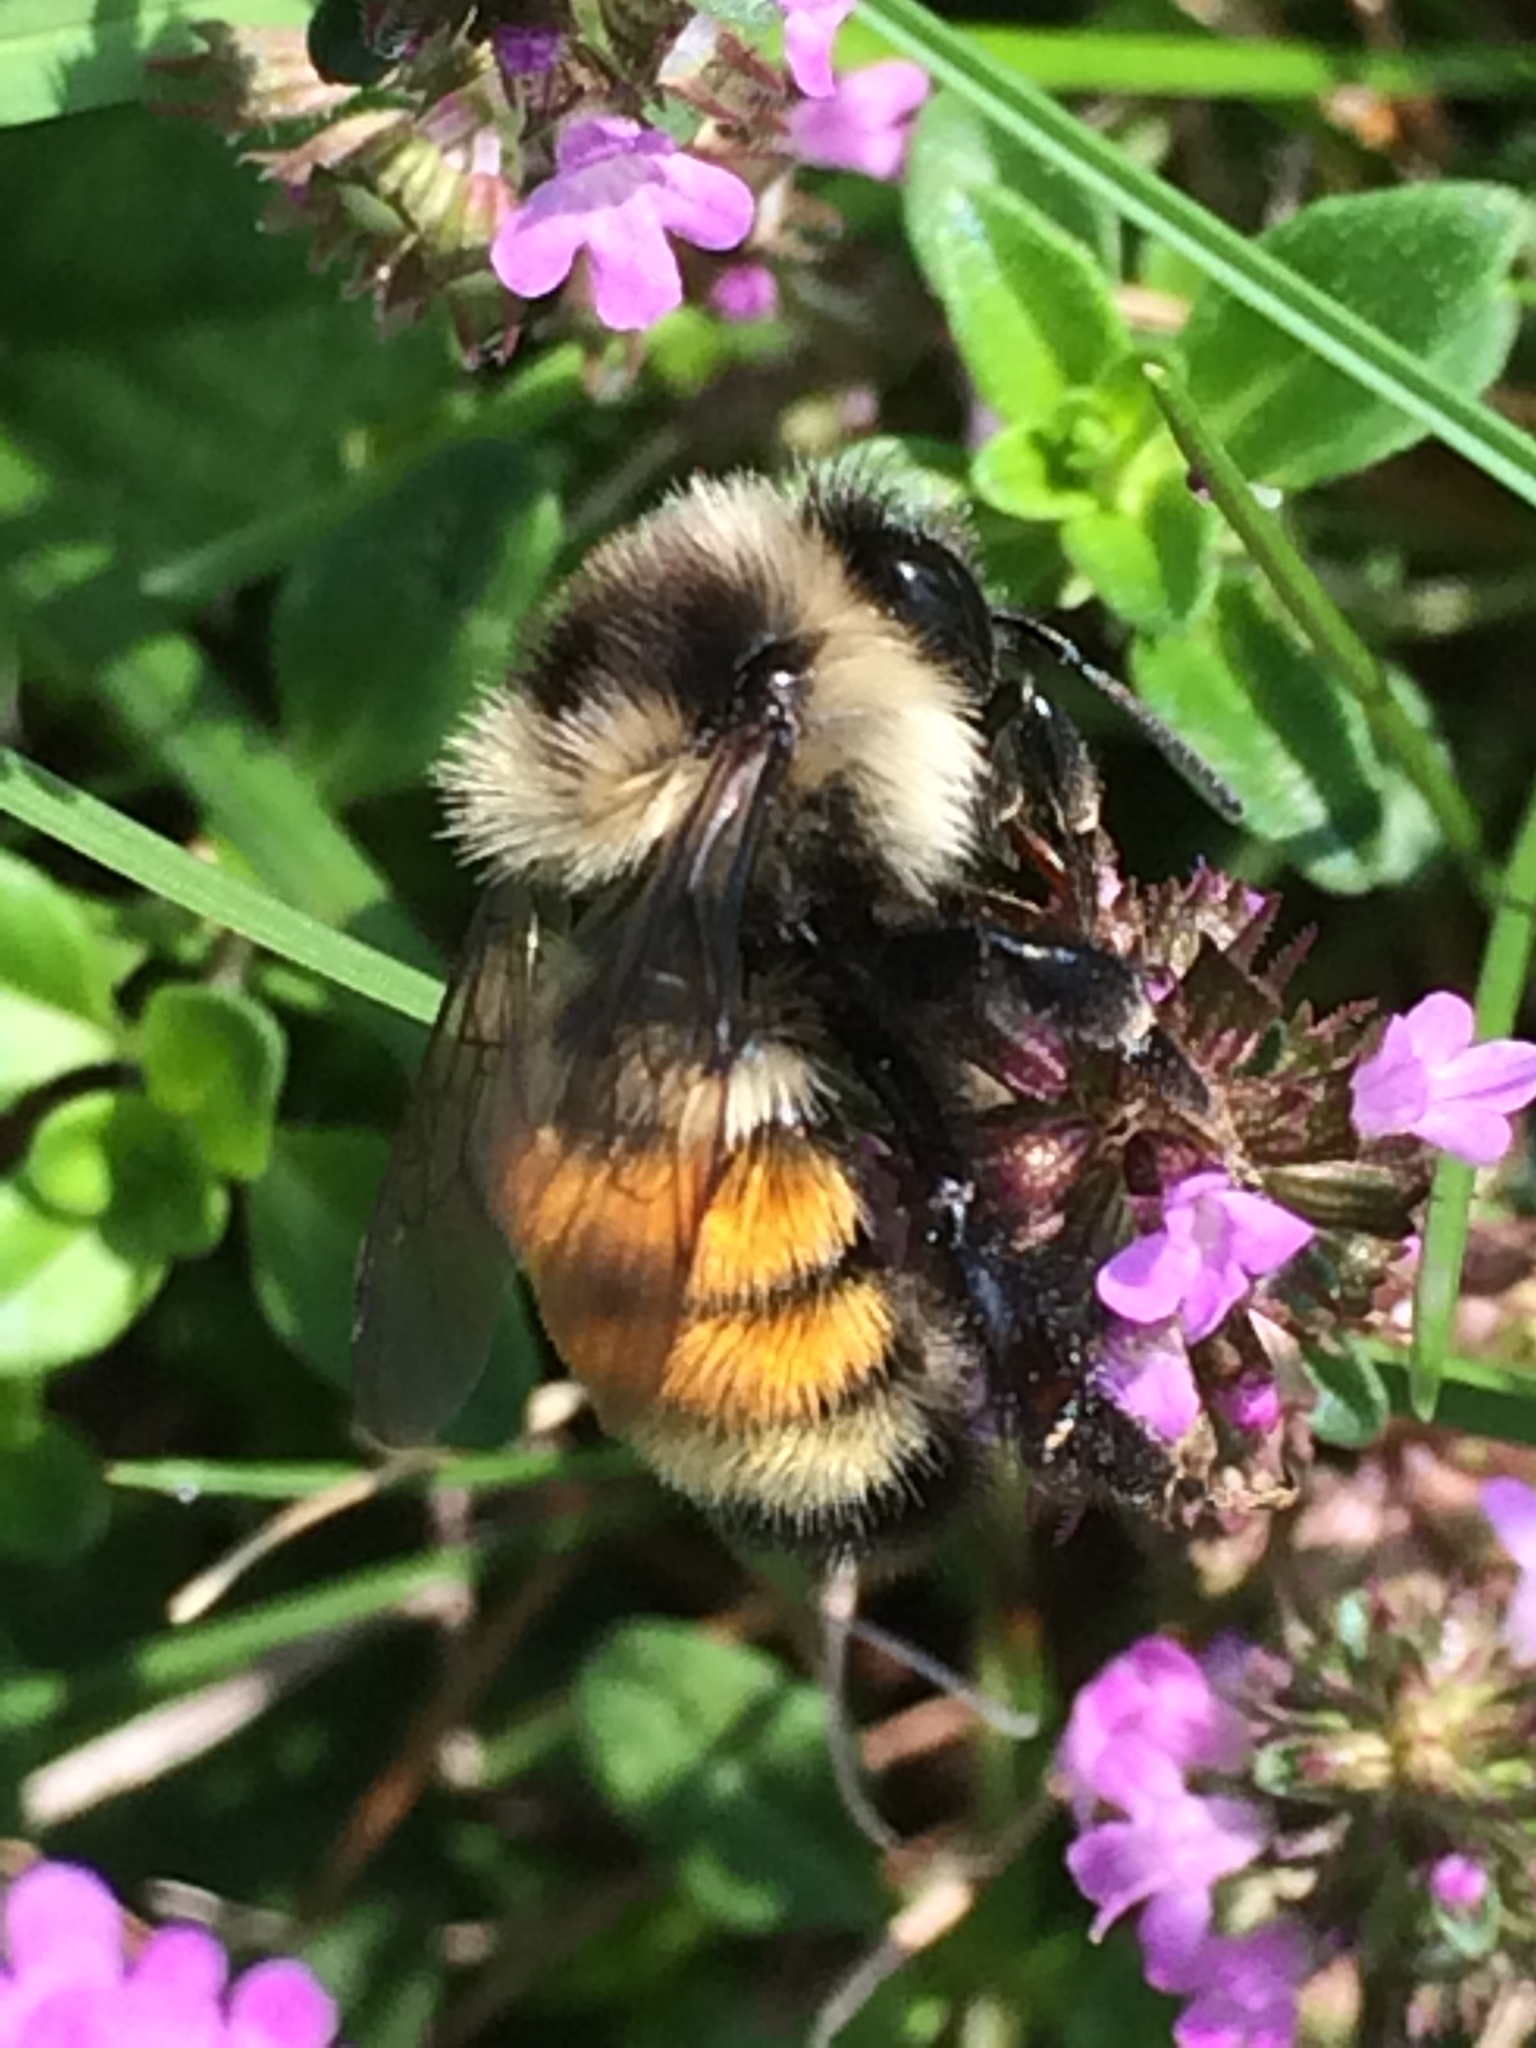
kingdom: Animalia
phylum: Arthropoda
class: Insecta
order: Hymenoptera
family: Apidae
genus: Bombus
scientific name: Bombus ternarius
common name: Tri-colored bumble bee
